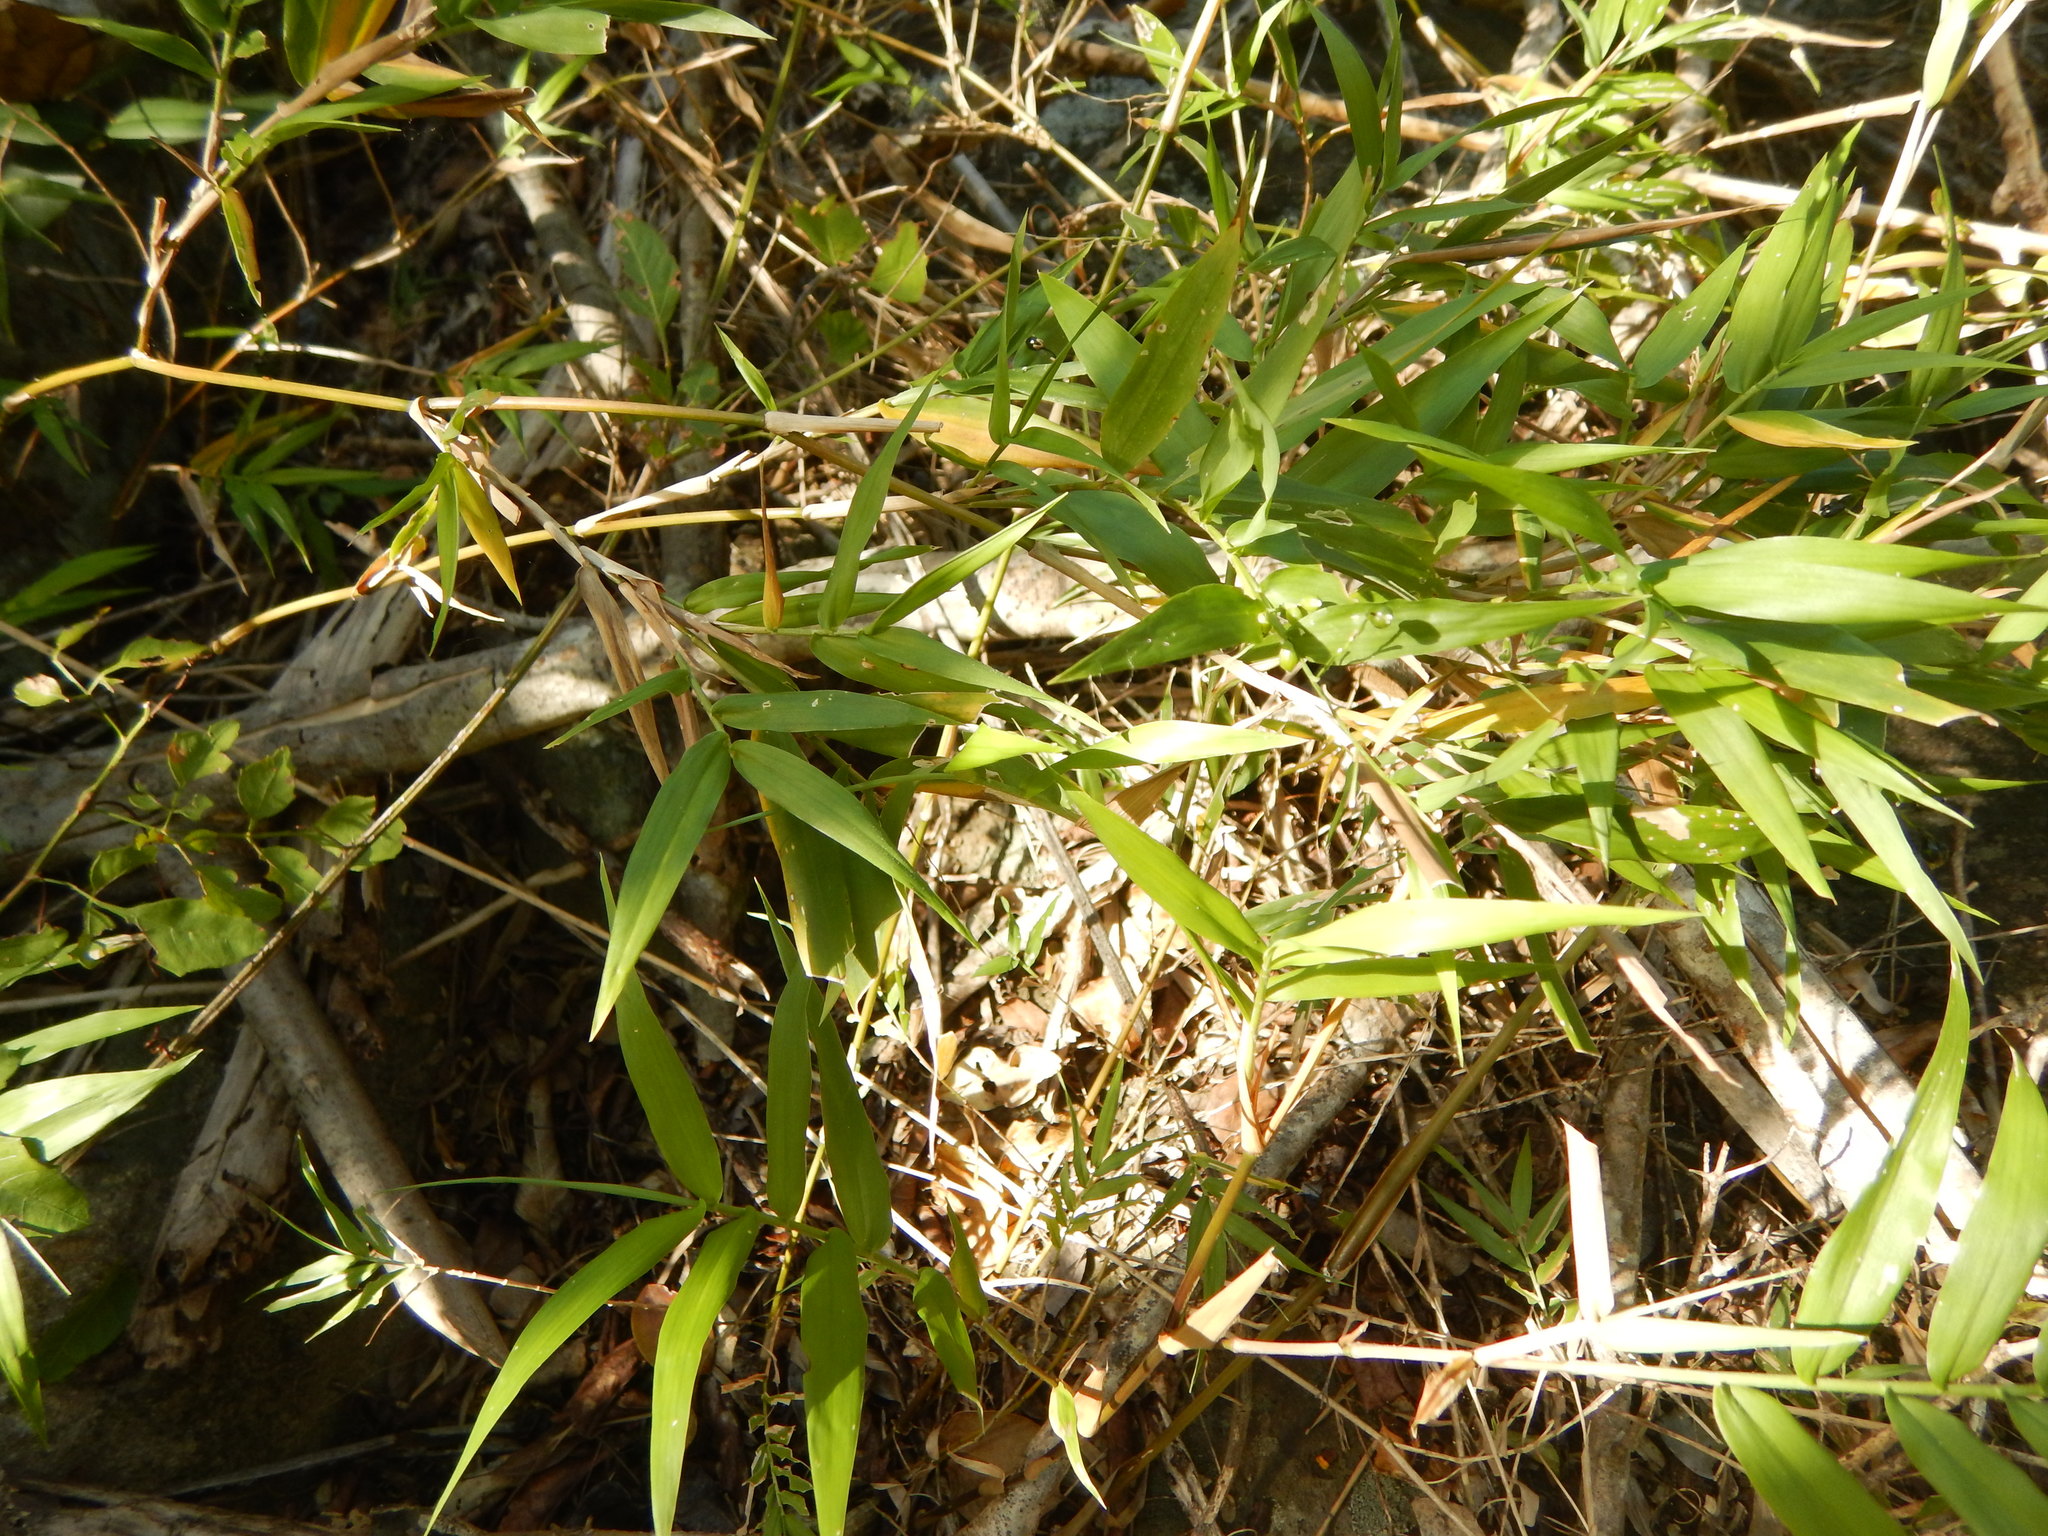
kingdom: Plantae
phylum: Tracheophyta
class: Liliopsida
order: Poales
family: Poaceae
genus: Lasiacis
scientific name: Lasiacis divaricata
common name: Smallcane
